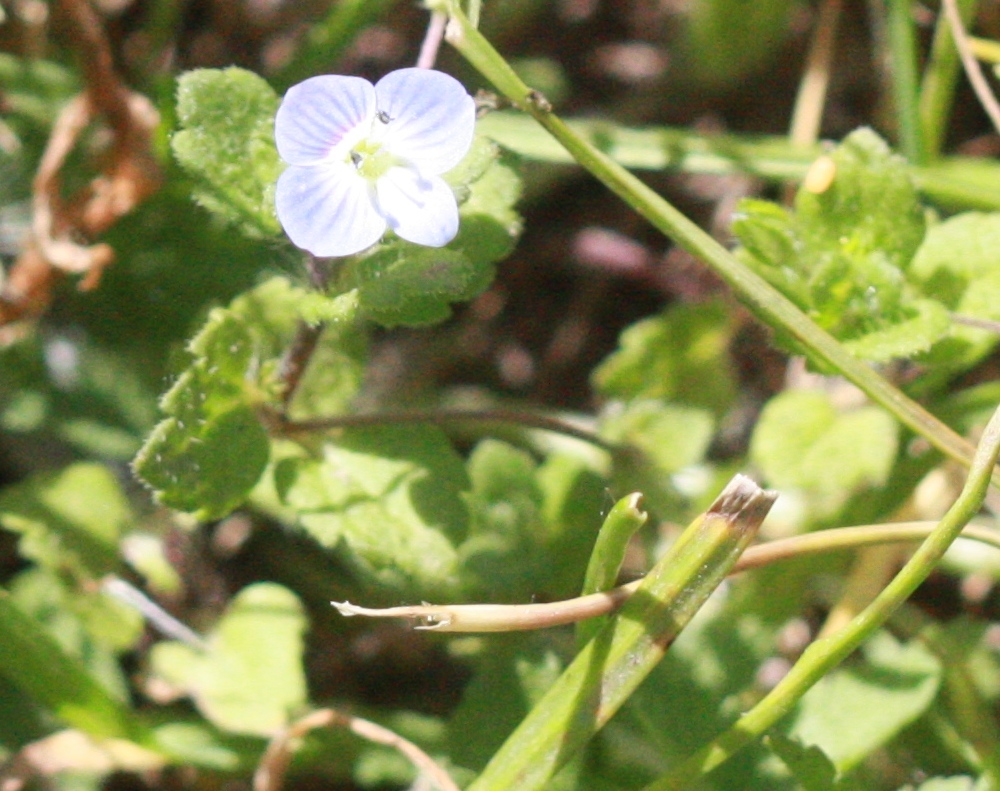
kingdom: Plantae
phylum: Tracheophyta
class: Magnoliopsida
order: Lamiales
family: Plantaginaceae
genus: Veronica
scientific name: Veronica persica
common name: Common field-speedwell
